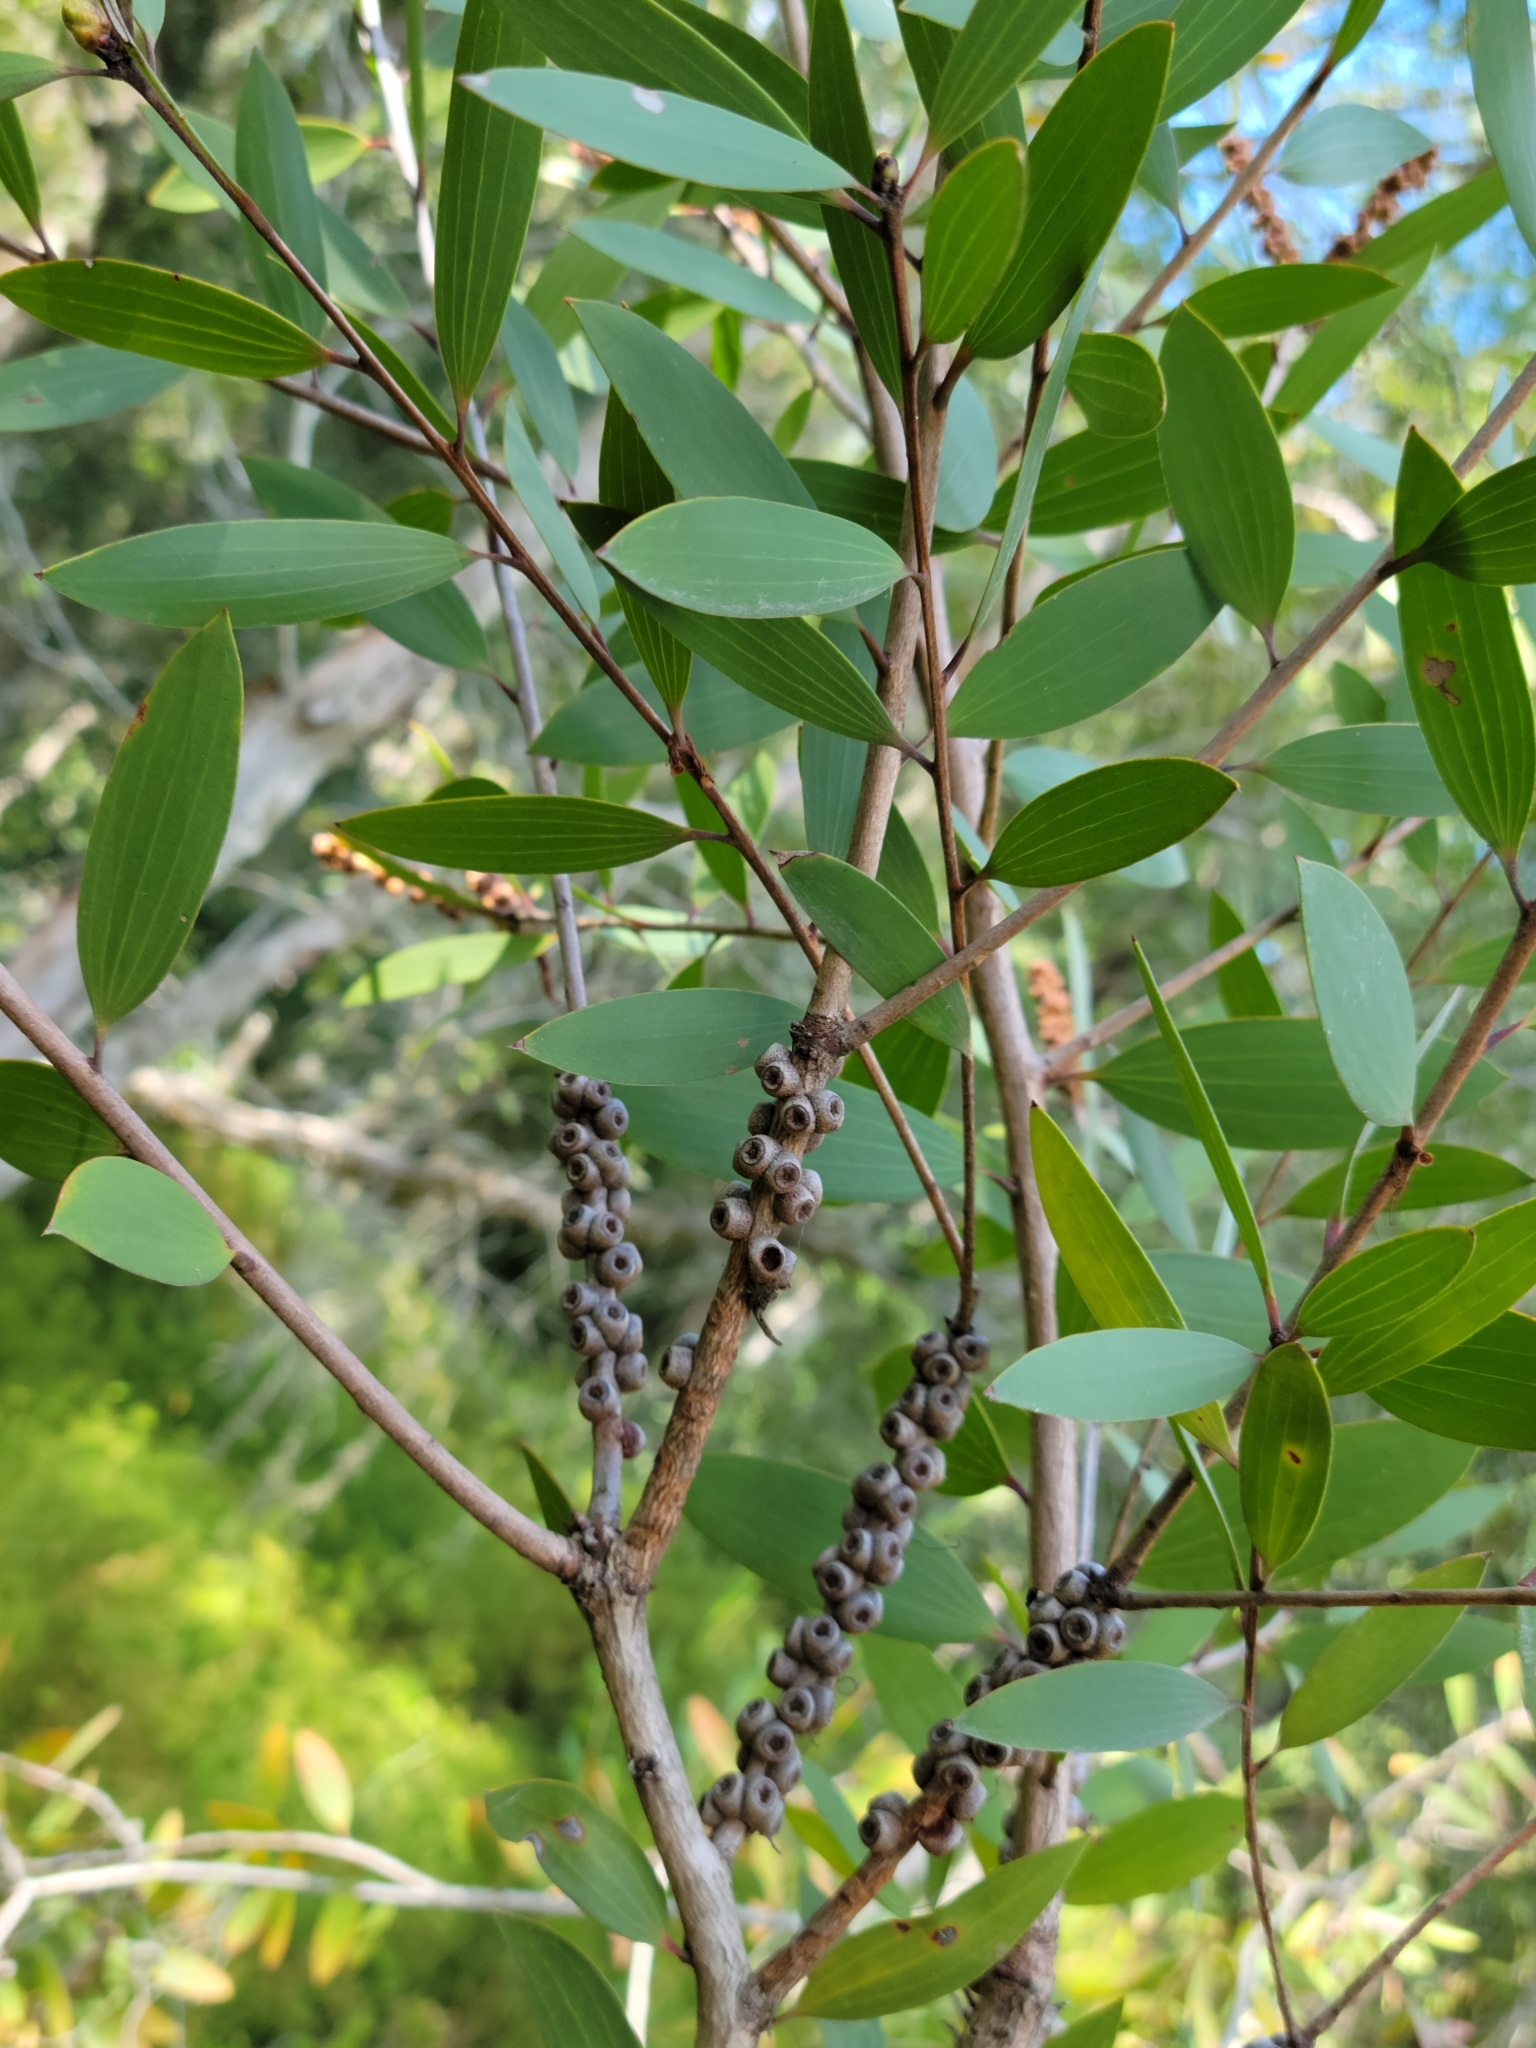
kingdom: Plantae
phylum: Tracheophyta
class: Magnoliopsida
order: Myrtales
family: Myrtaceae
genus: Melaleuca
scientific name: Melaleuca quinquenervia
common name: Punktree
